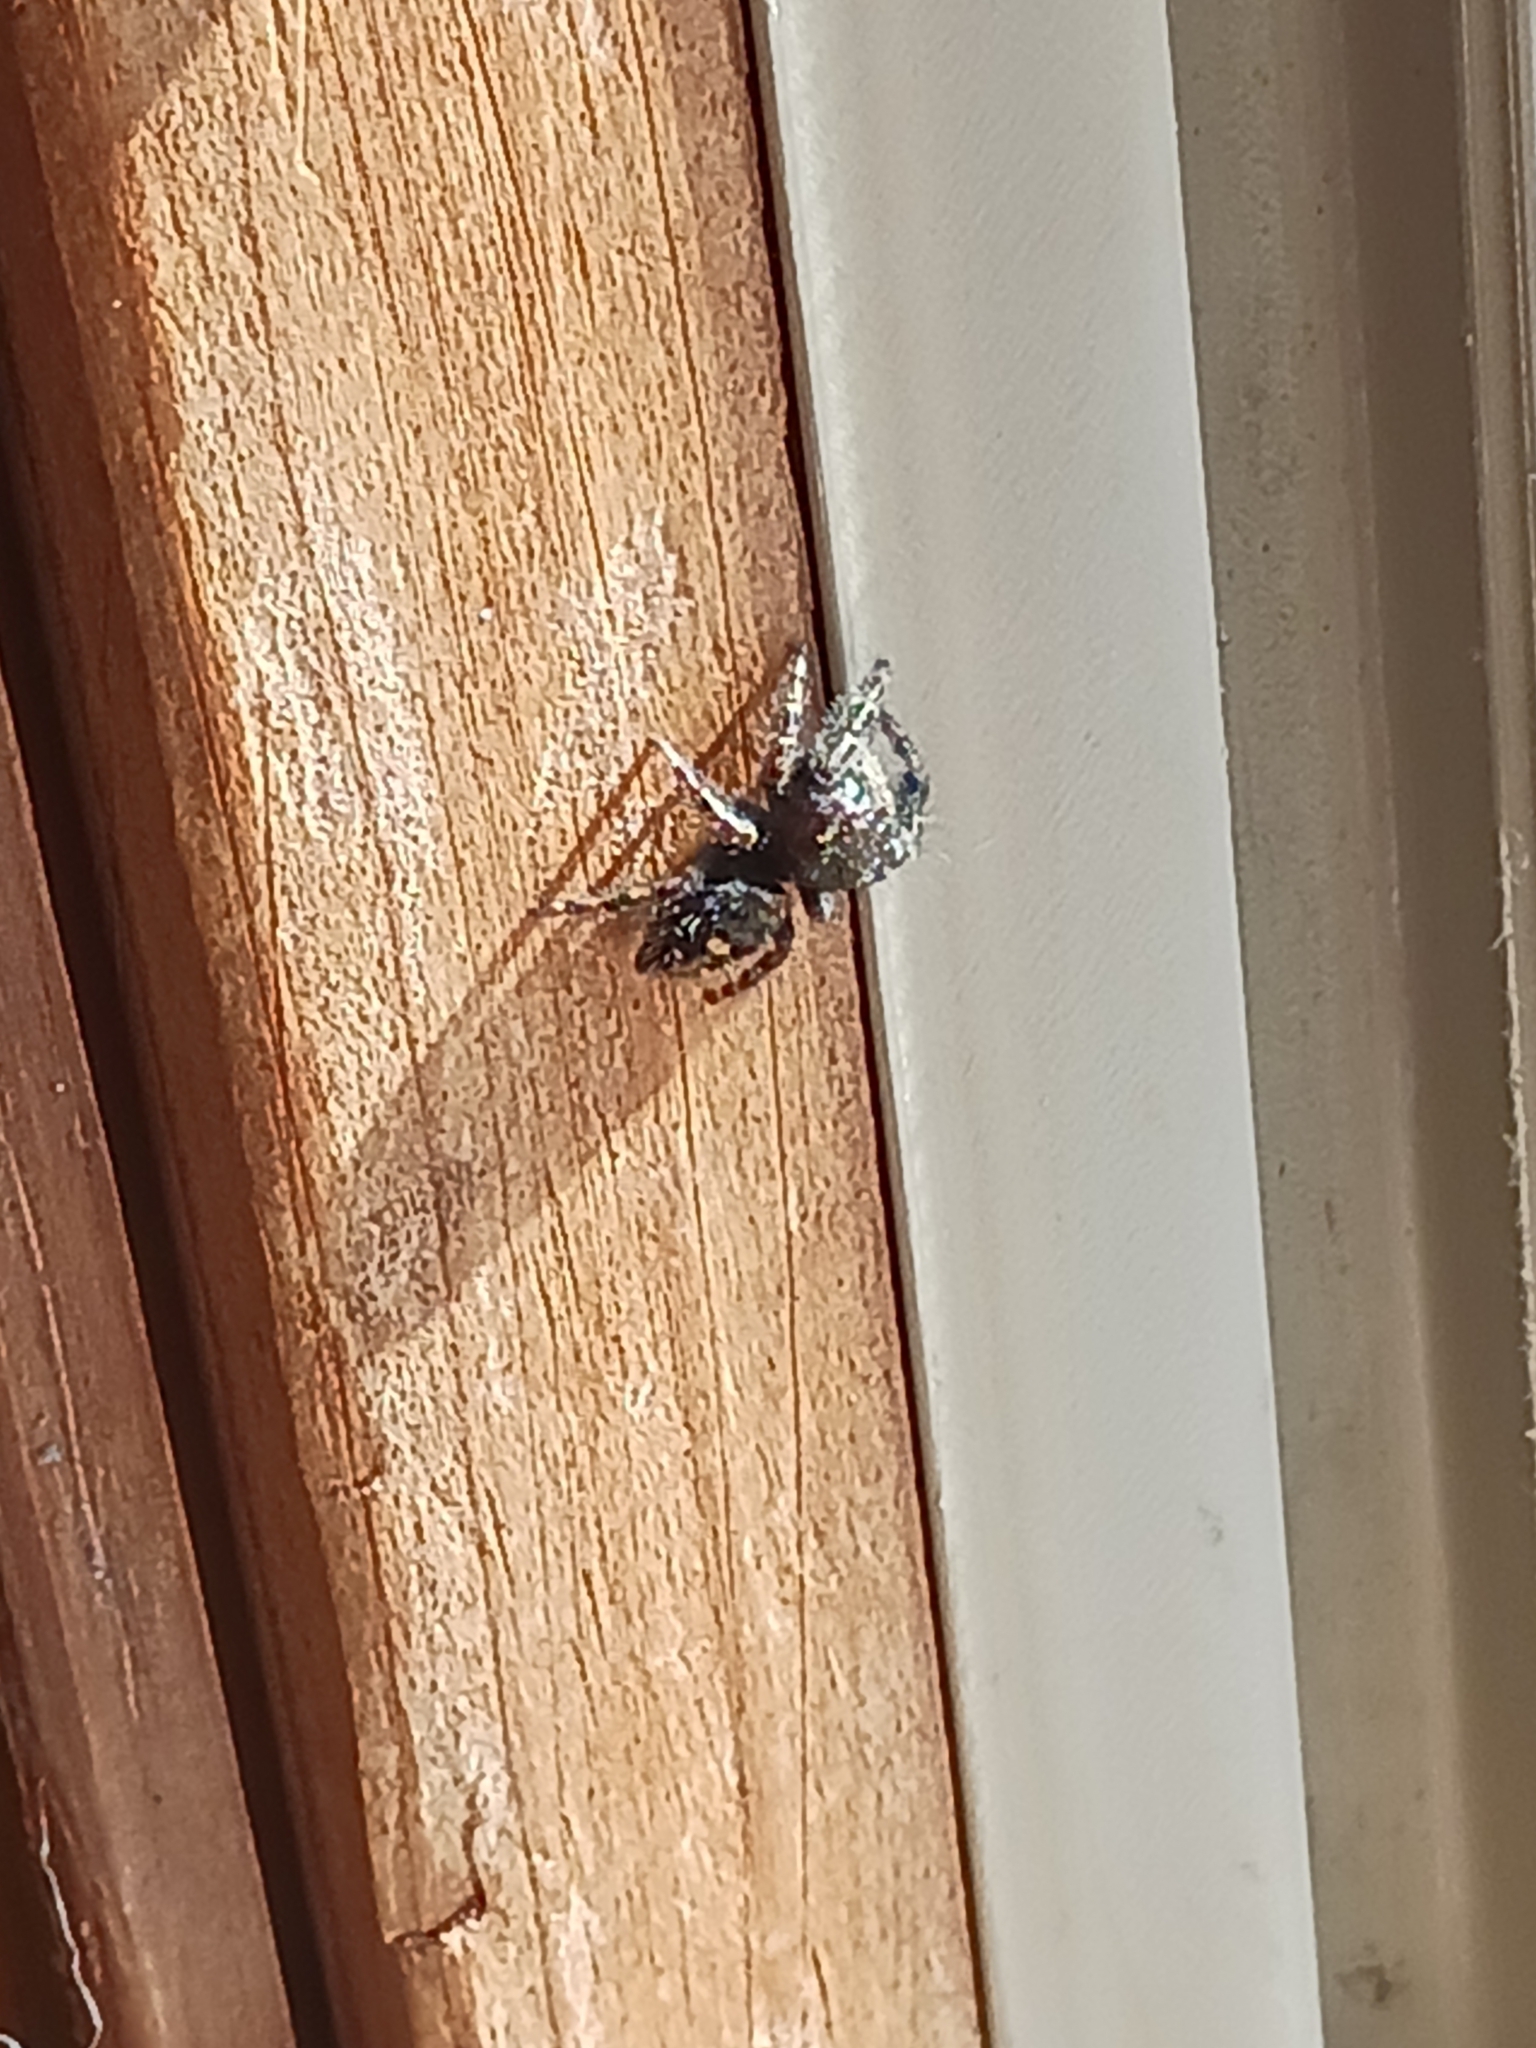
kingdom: Animalia
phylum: Arthropoda
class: Arachnida
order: Araneae
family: Salticidae
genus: Phidippus
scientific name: Phidippus audax
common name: Bold jumper
